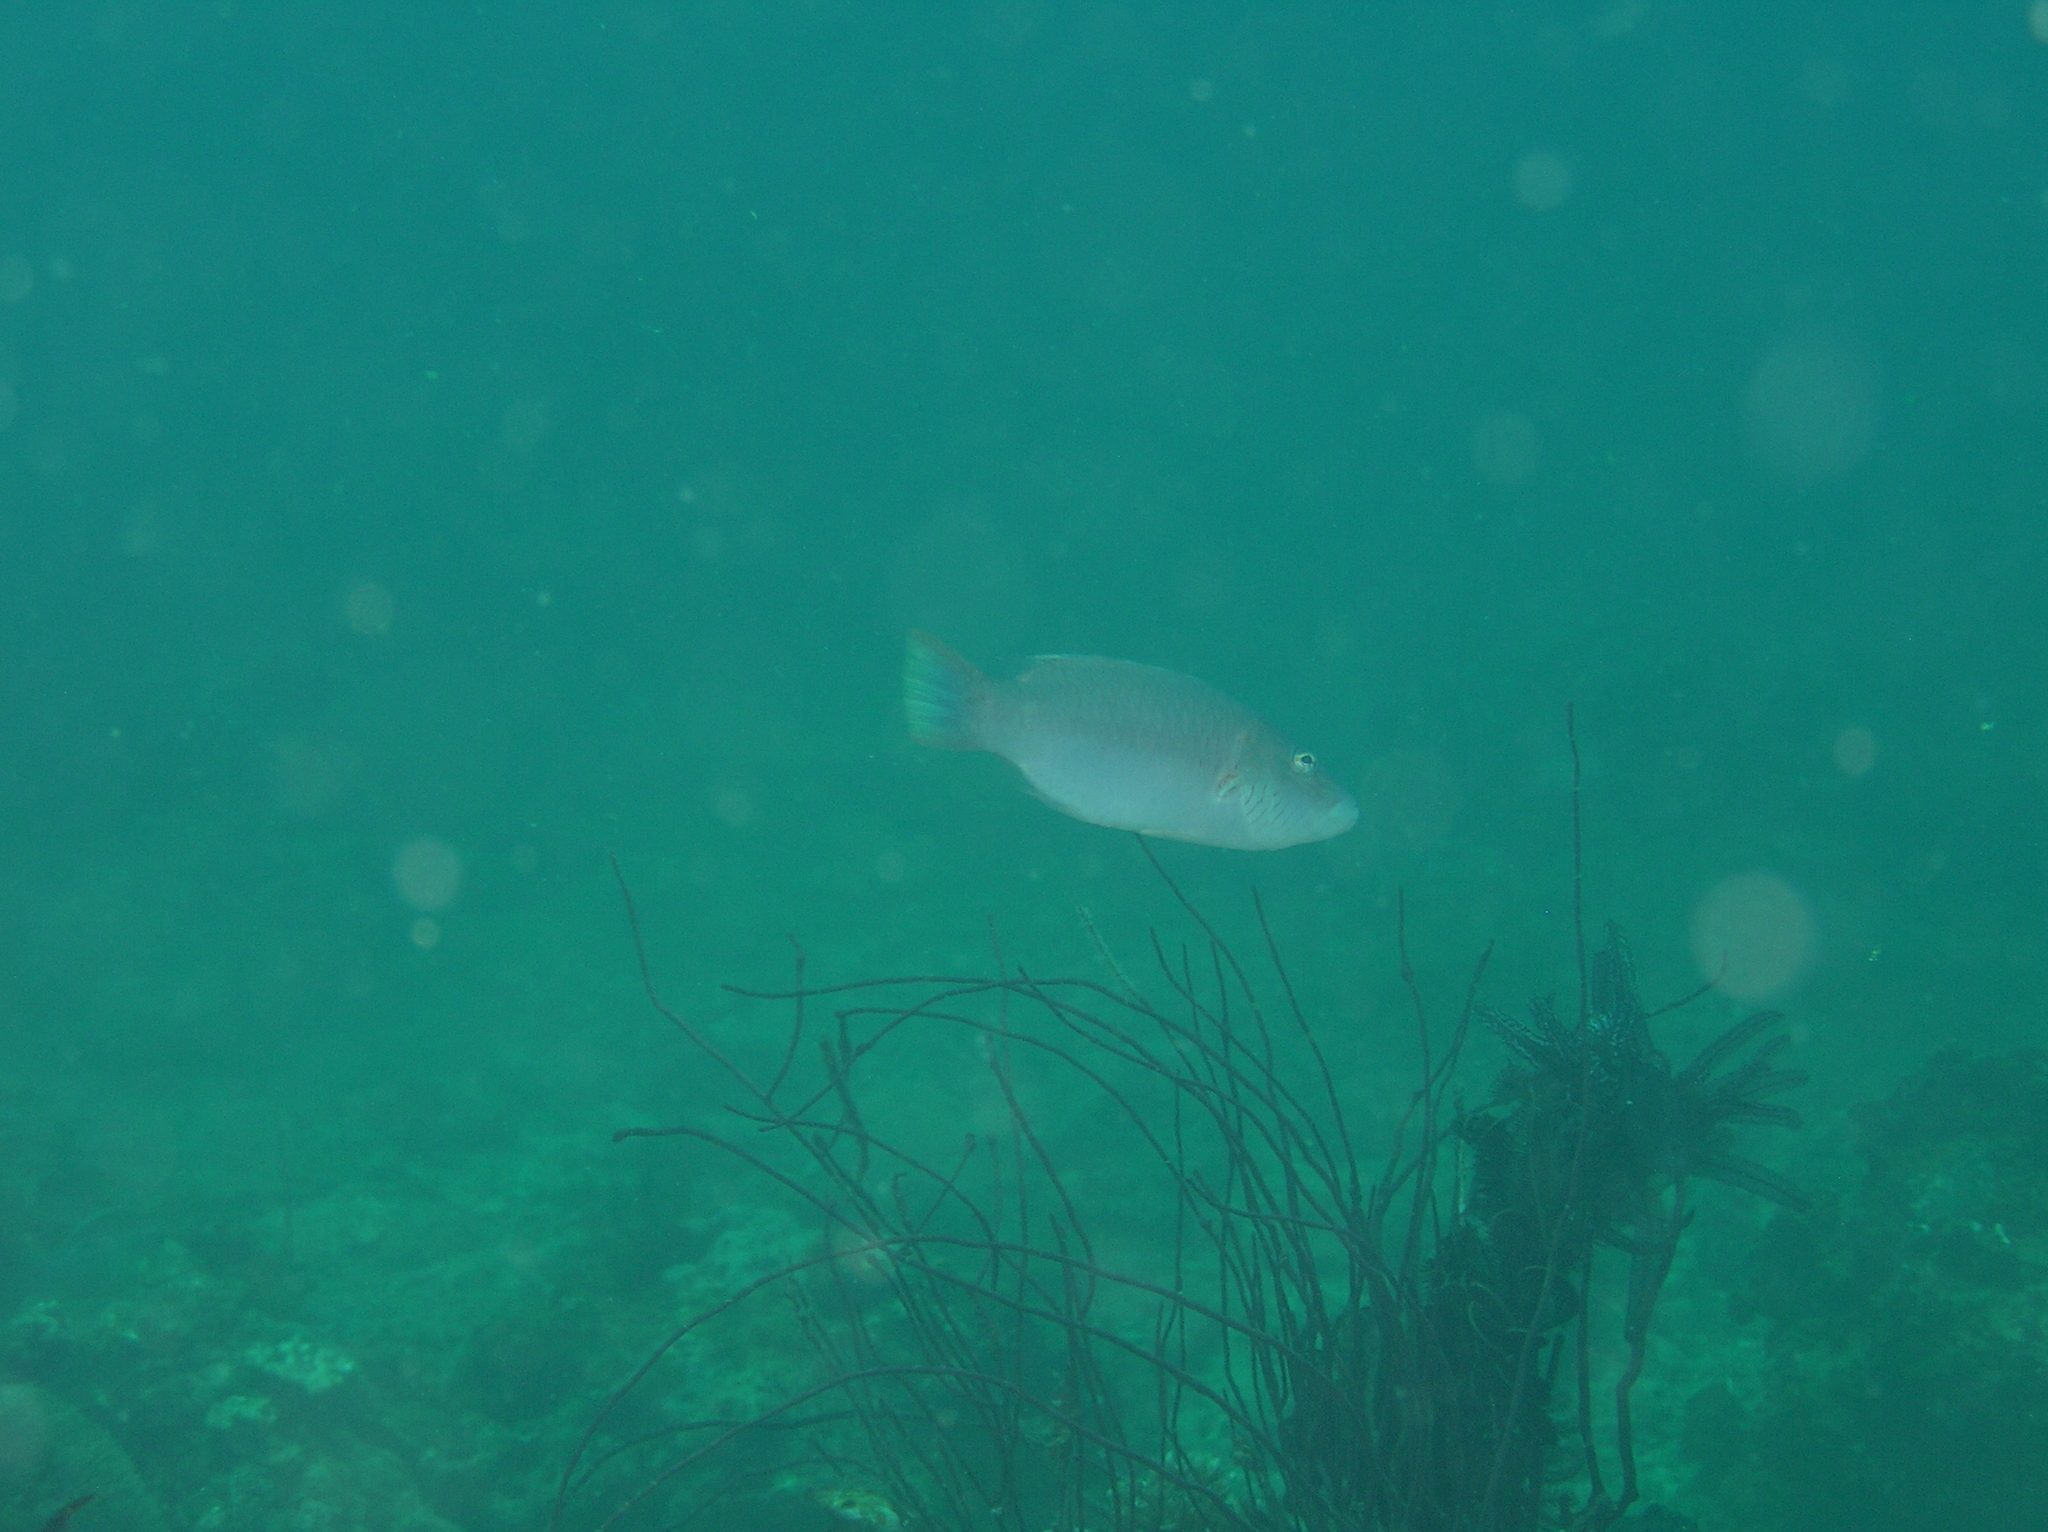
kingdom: Animalia
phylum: Chordata
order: Perciformes
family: Labridae
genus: Oxycheilinus
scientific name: Oxycheilinus digramma
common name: Bandcheek wrasse
